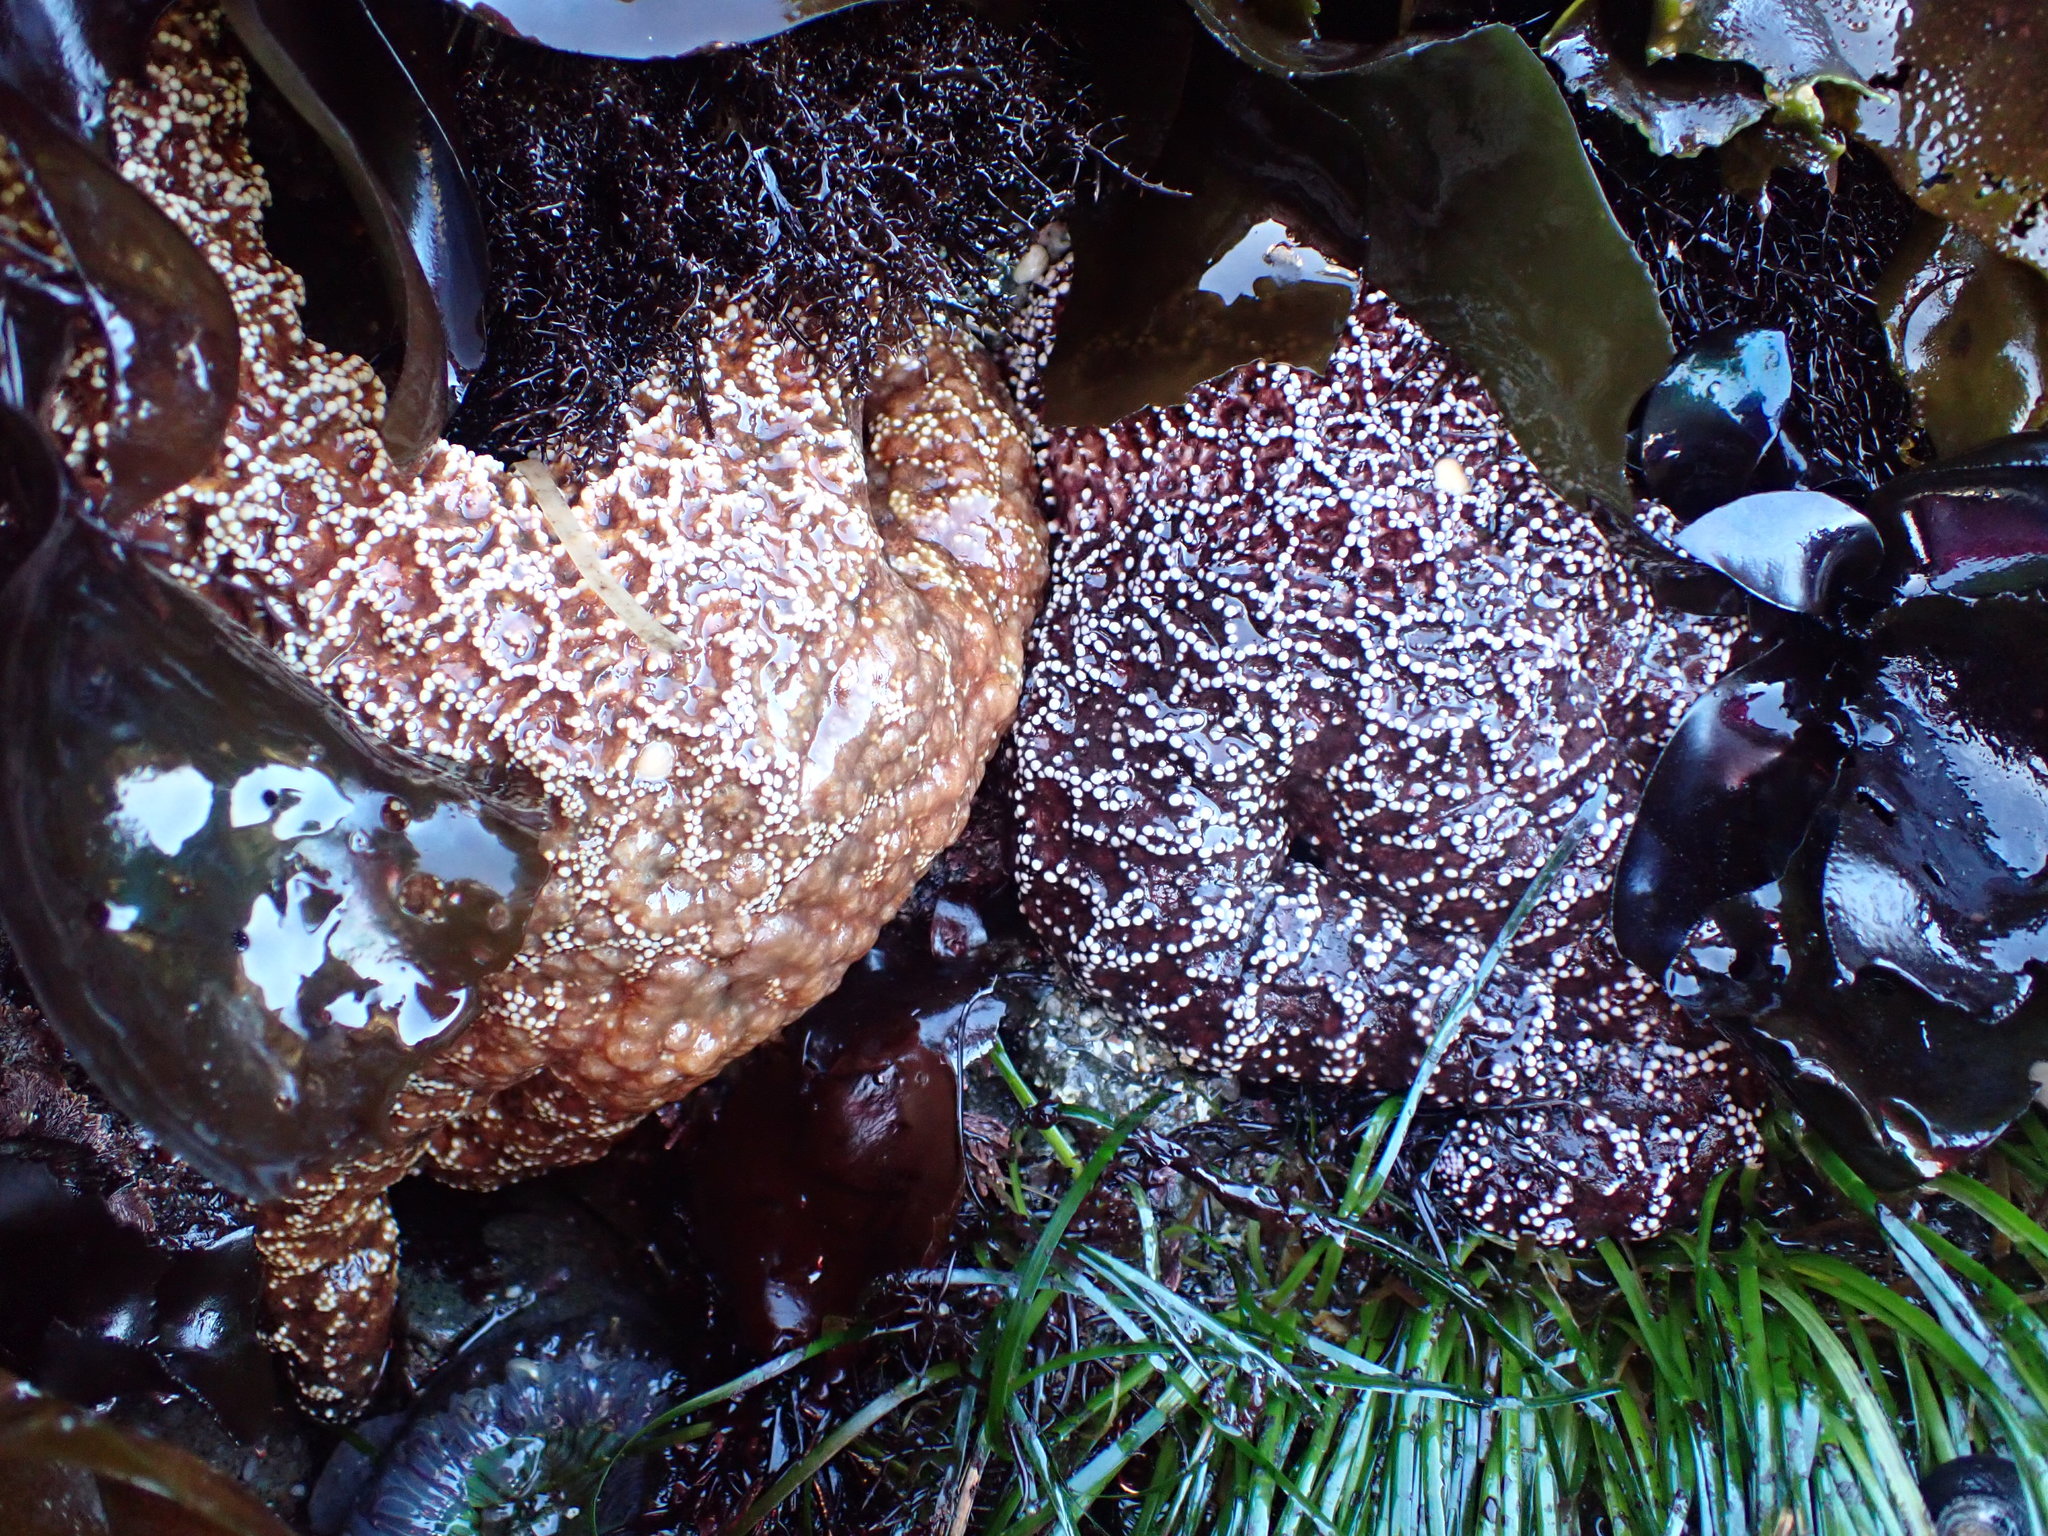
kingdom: Animalia
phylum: Echinodermata
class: Asteroidea
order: Forcipulatida
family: Asteriidae
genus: Pisaster
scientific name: Pisaster ochraceus
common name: Ochre stars
